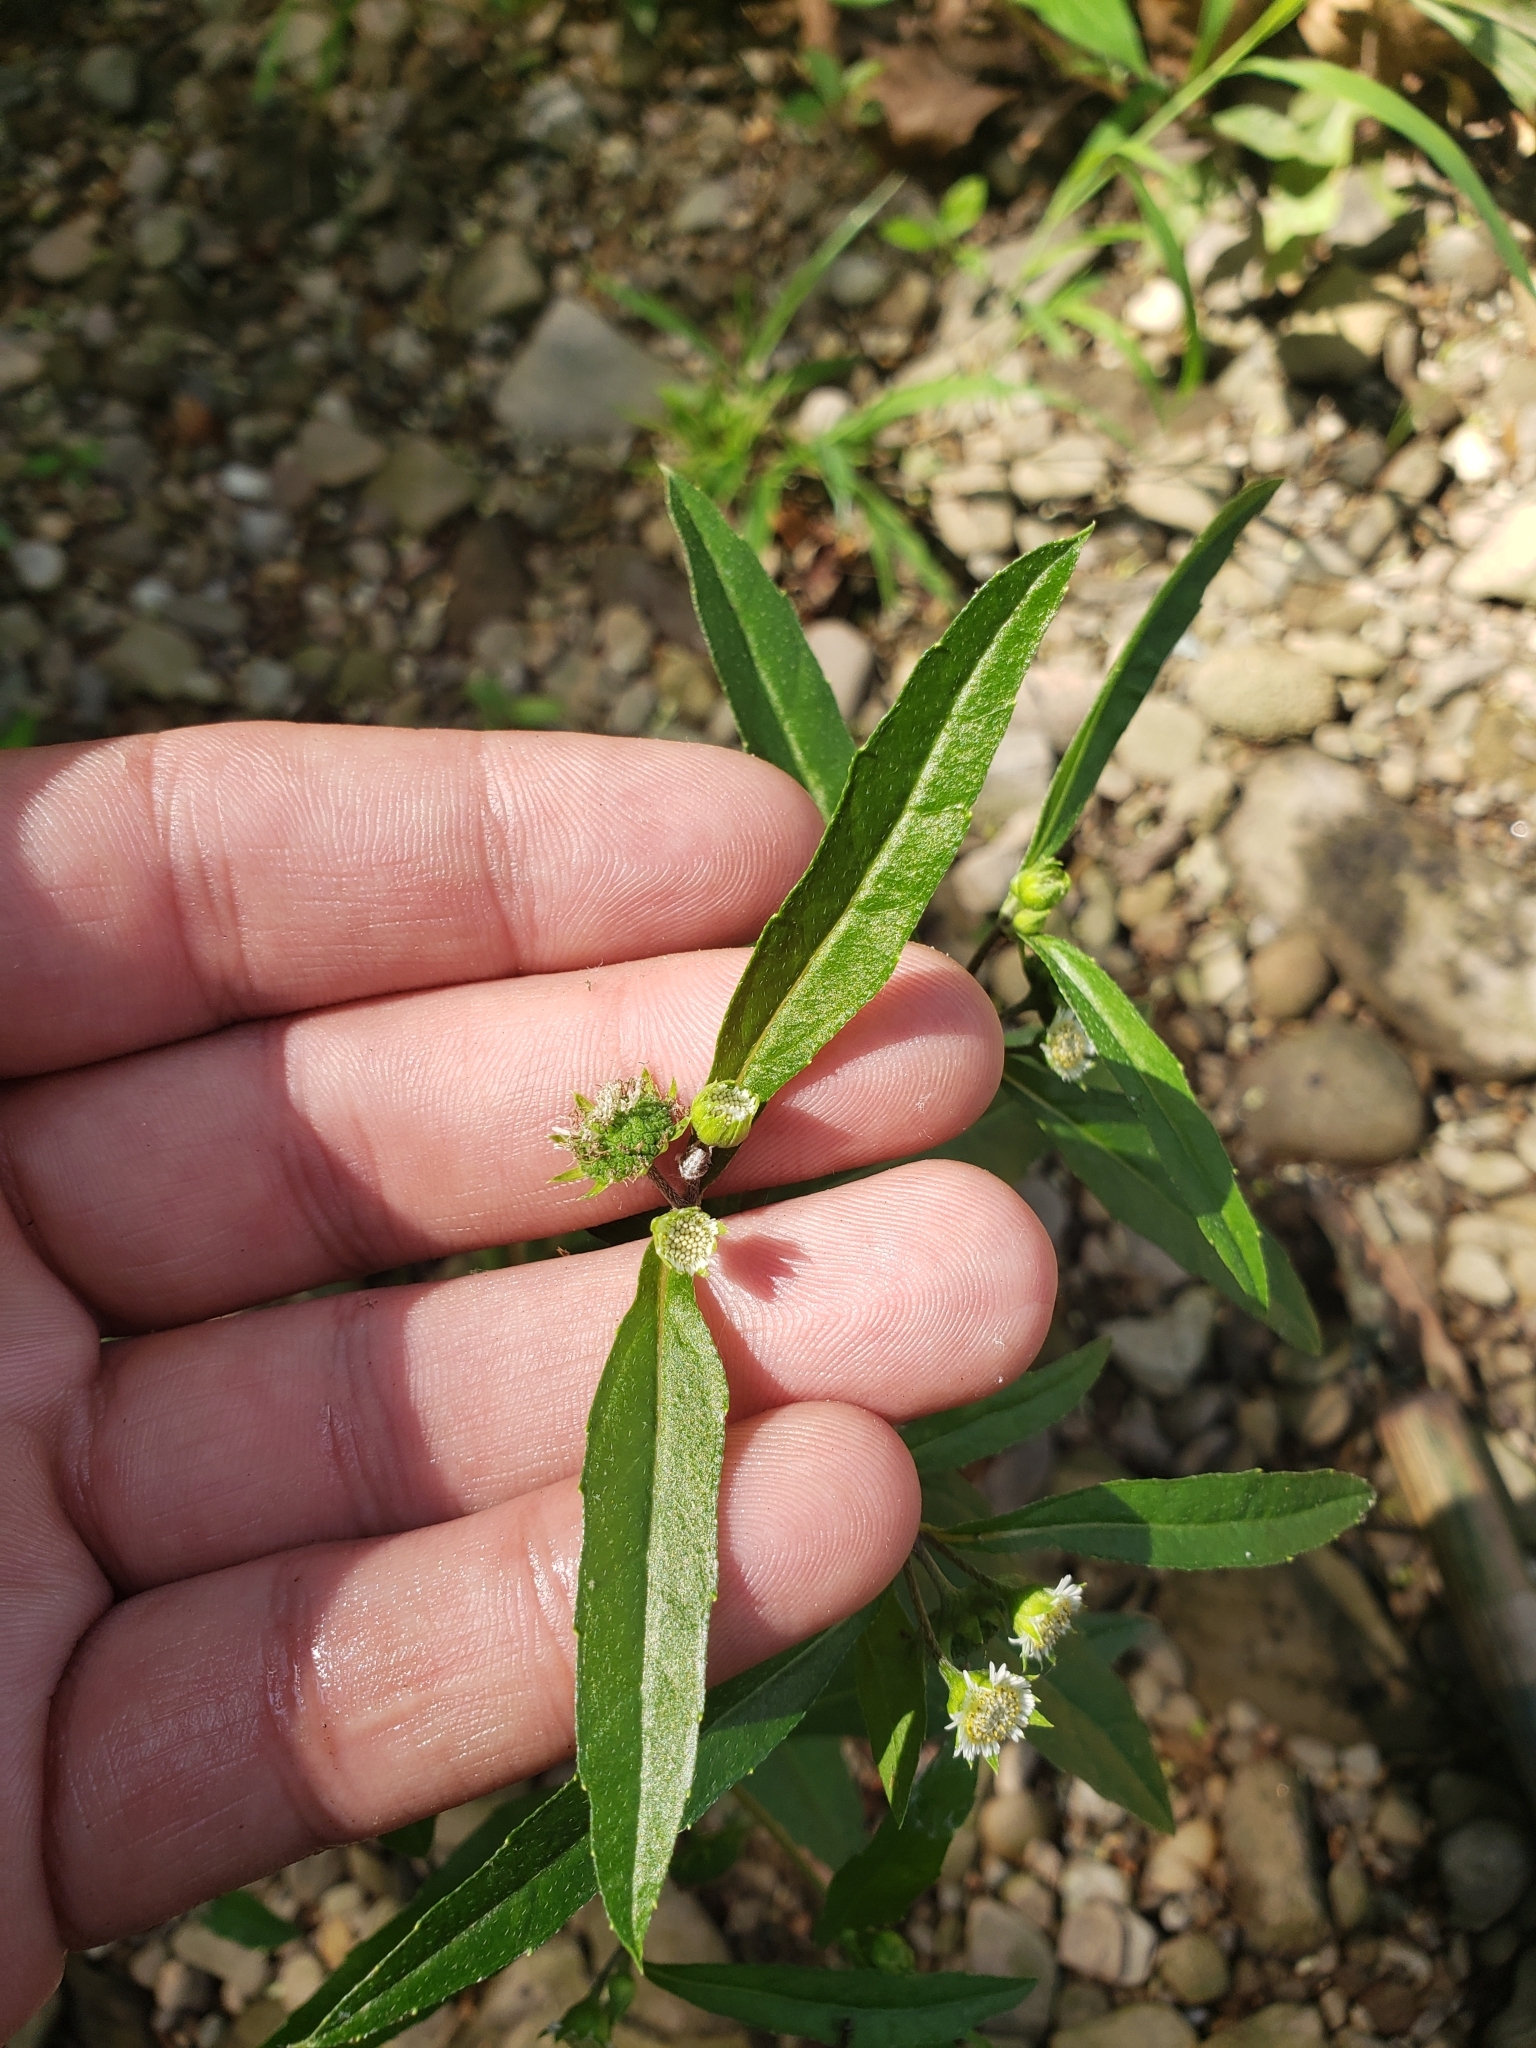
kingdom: Plantae
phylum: Tracheophyta
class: Magnoliopsida
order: Asterales
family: Asteraceae
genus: Eclipta
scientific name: Eclipta prostrata
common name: False daisy
